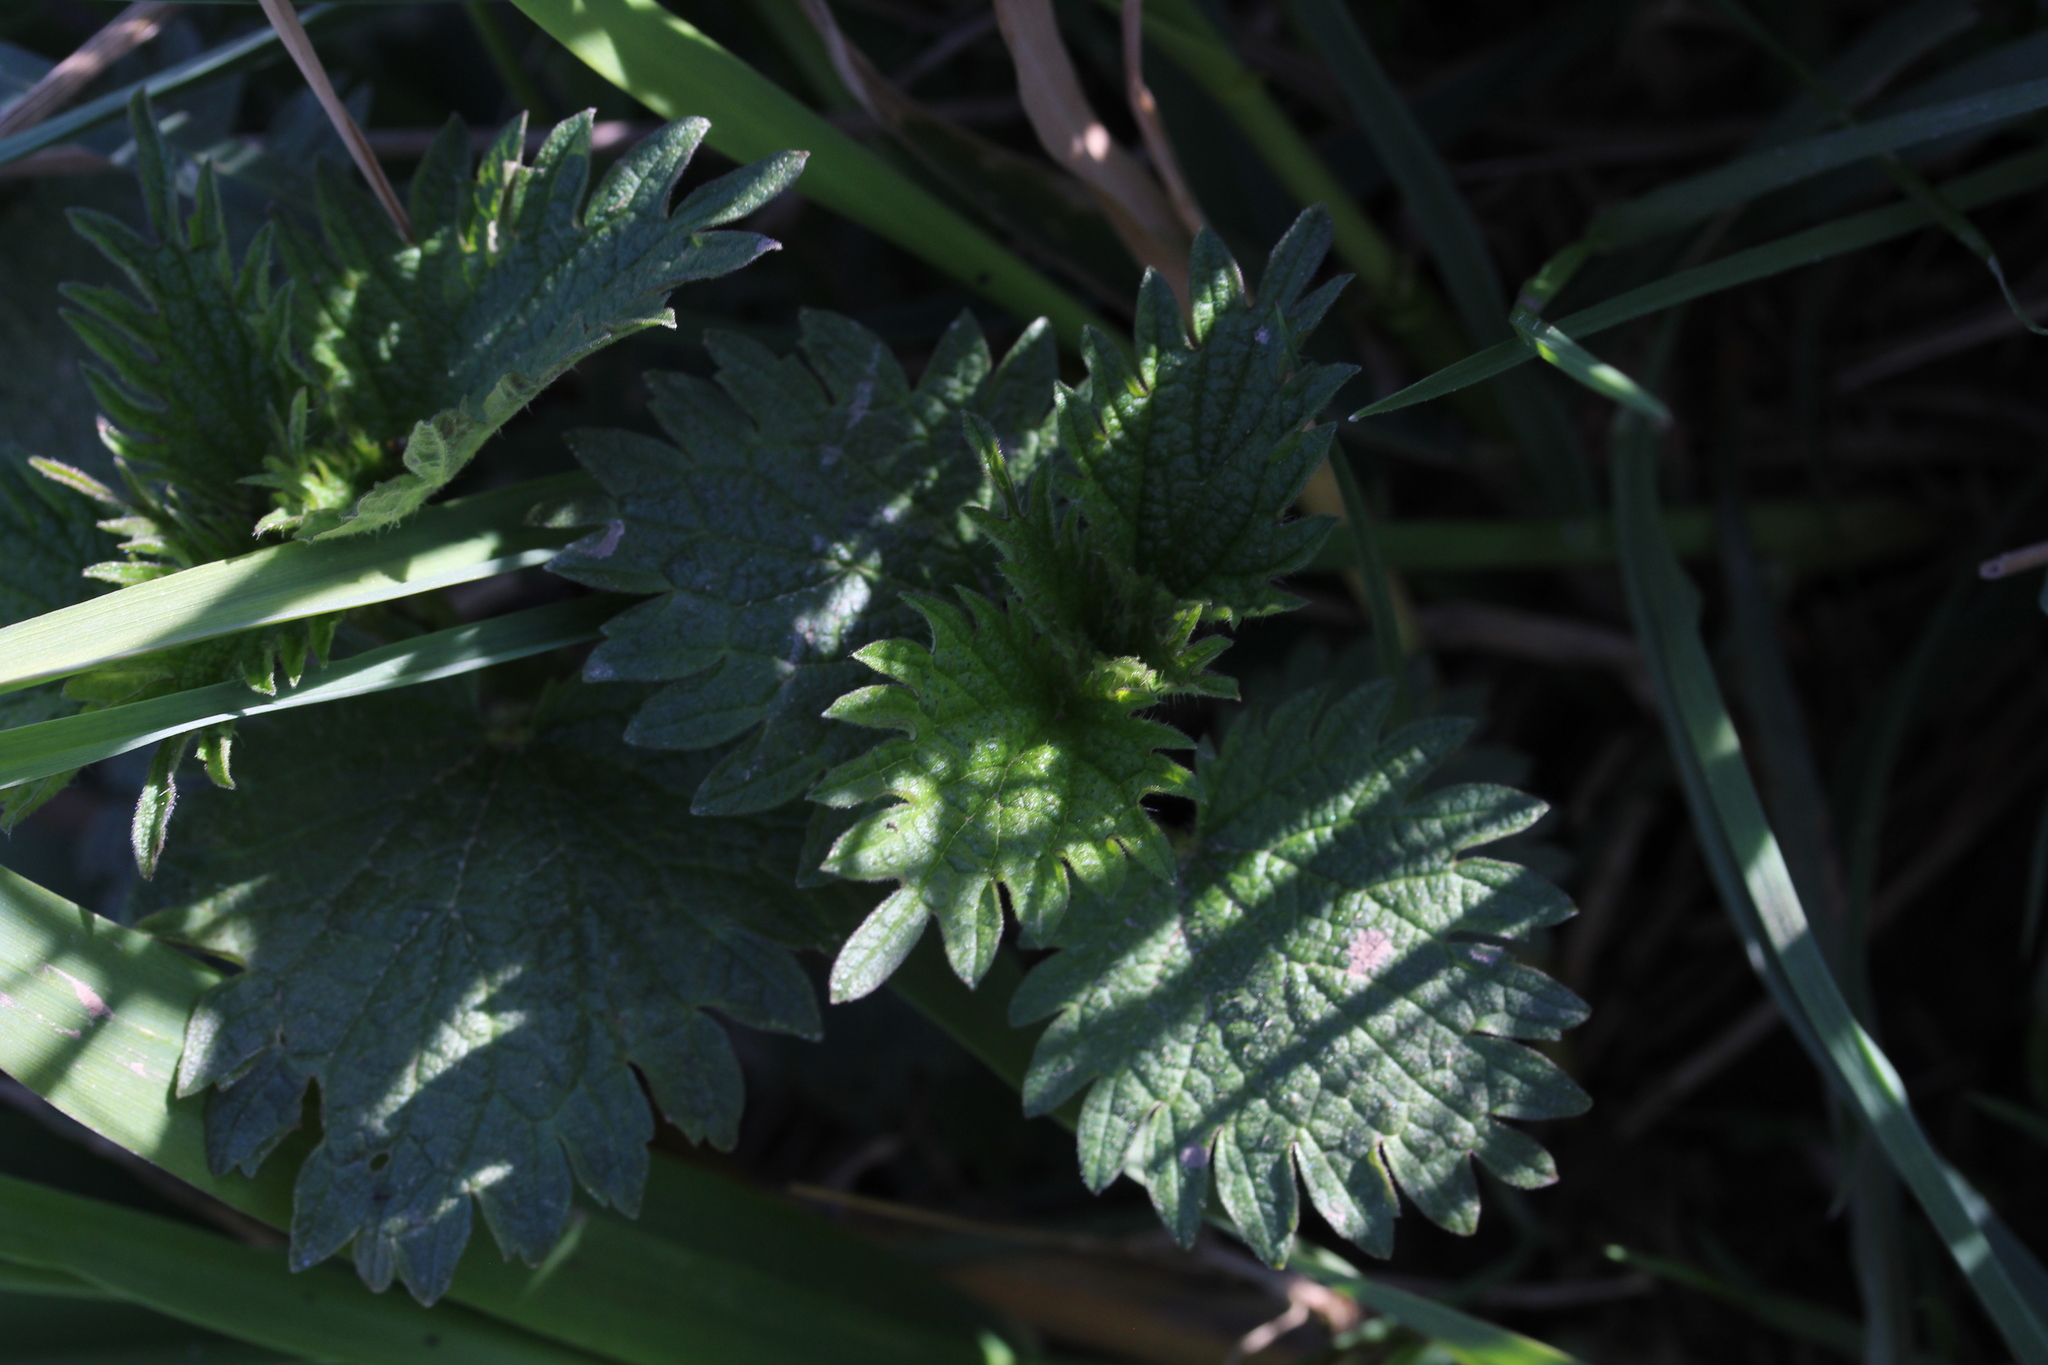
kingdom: Plantae
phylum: Tracheophyta
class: Magnoliopsida
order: Rosales
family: Urticaceae
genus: Urtica
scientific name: Urtica dioica
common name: Common nettle
